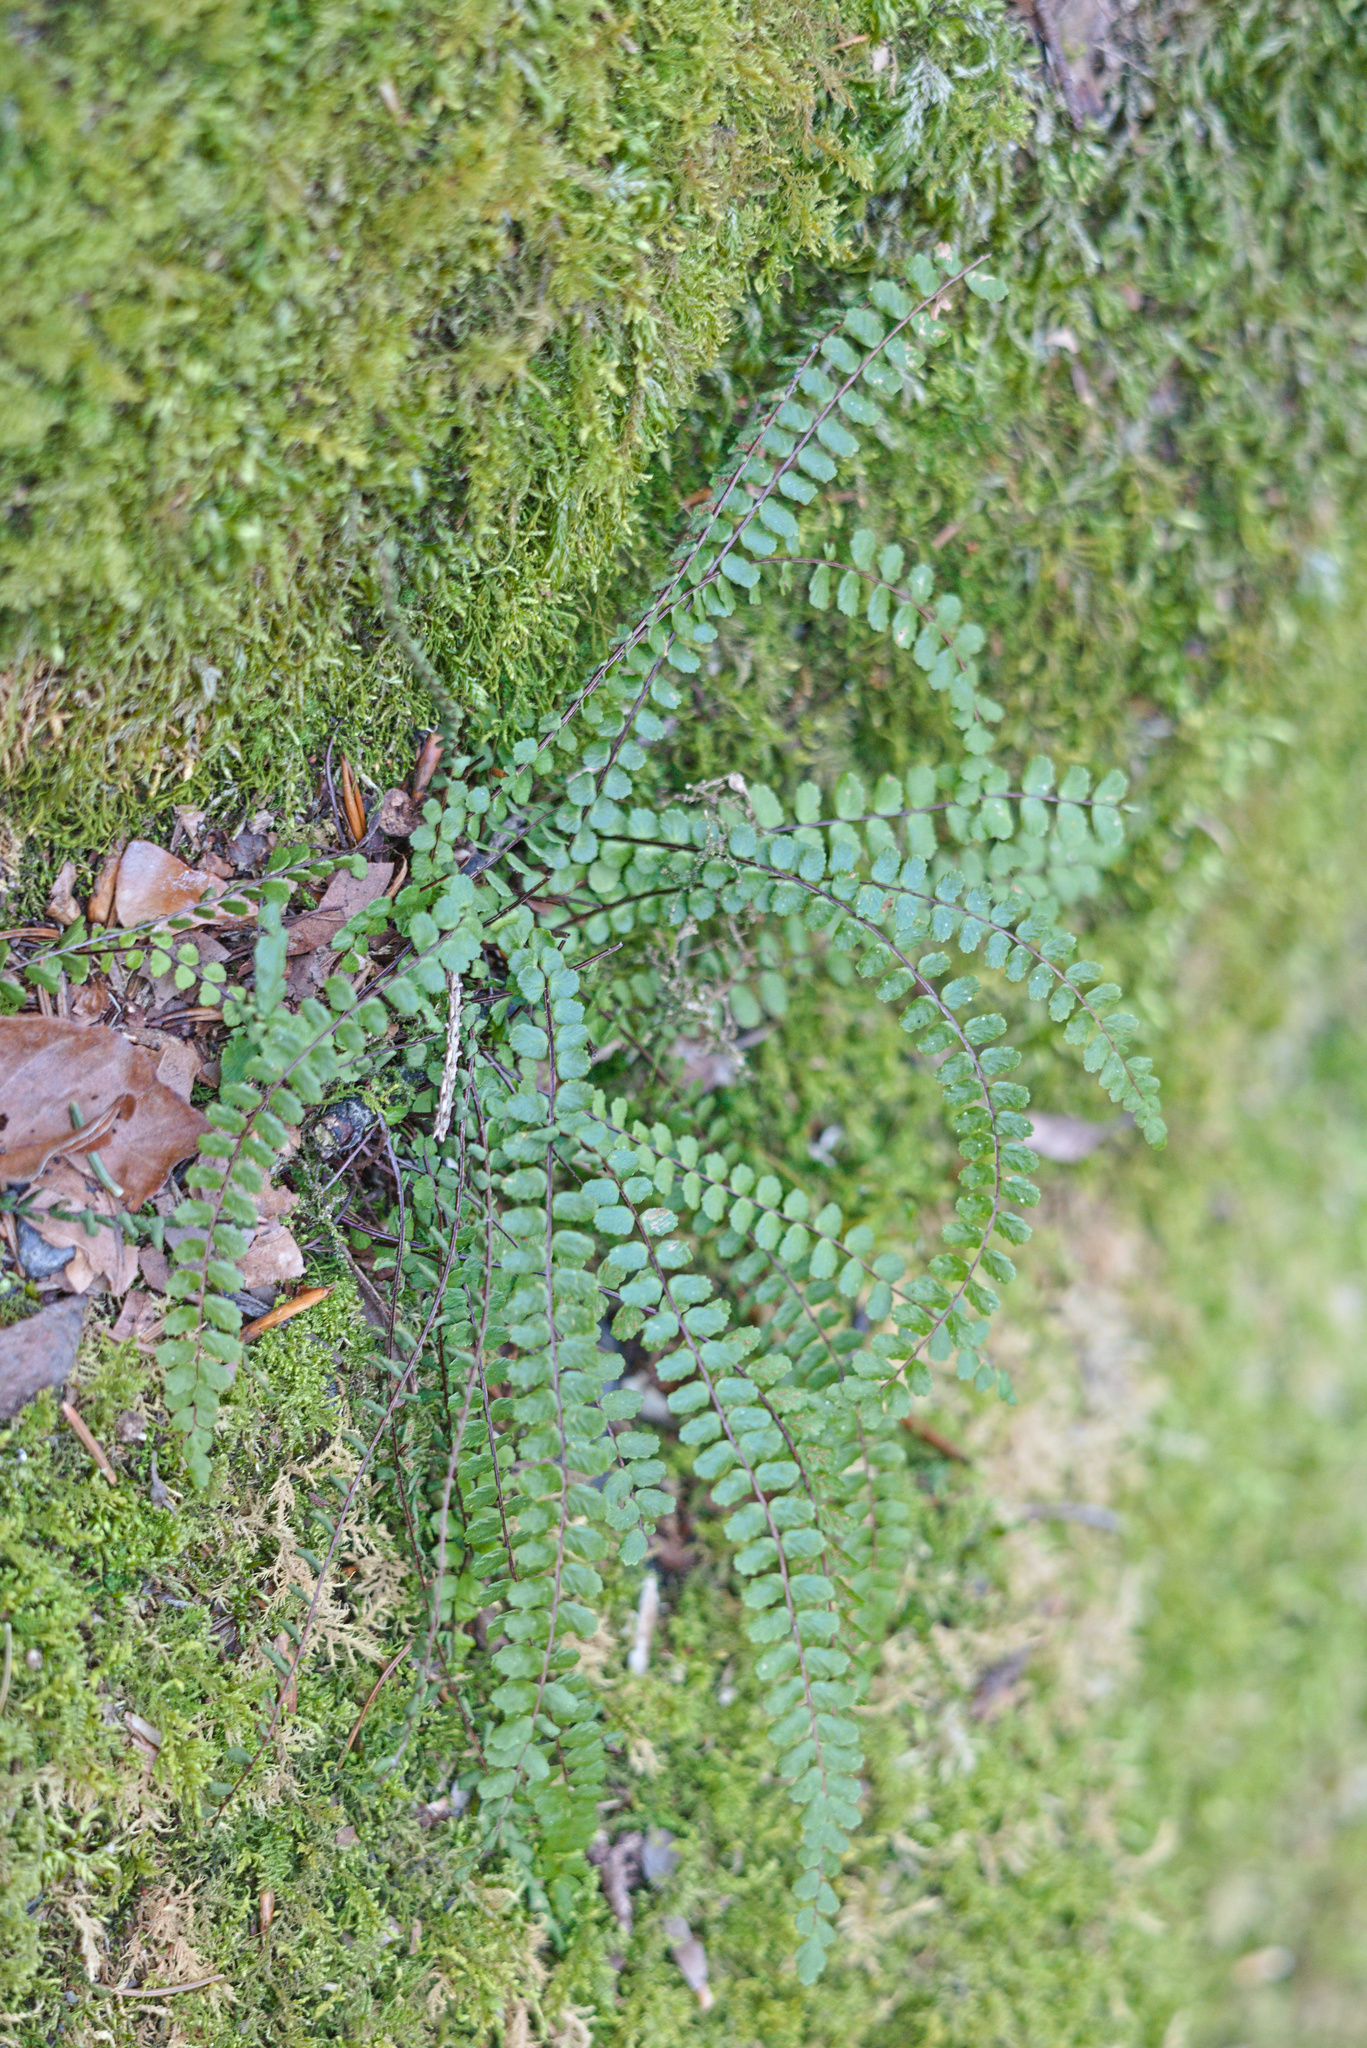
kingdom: Plantae
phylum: Tracheophyta
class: Polypodiopsida
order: Polypodiales
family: Aspleniaceae
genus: Asplenium
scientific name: Asplenium trichomanes
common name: Maidenhair spleenwort
